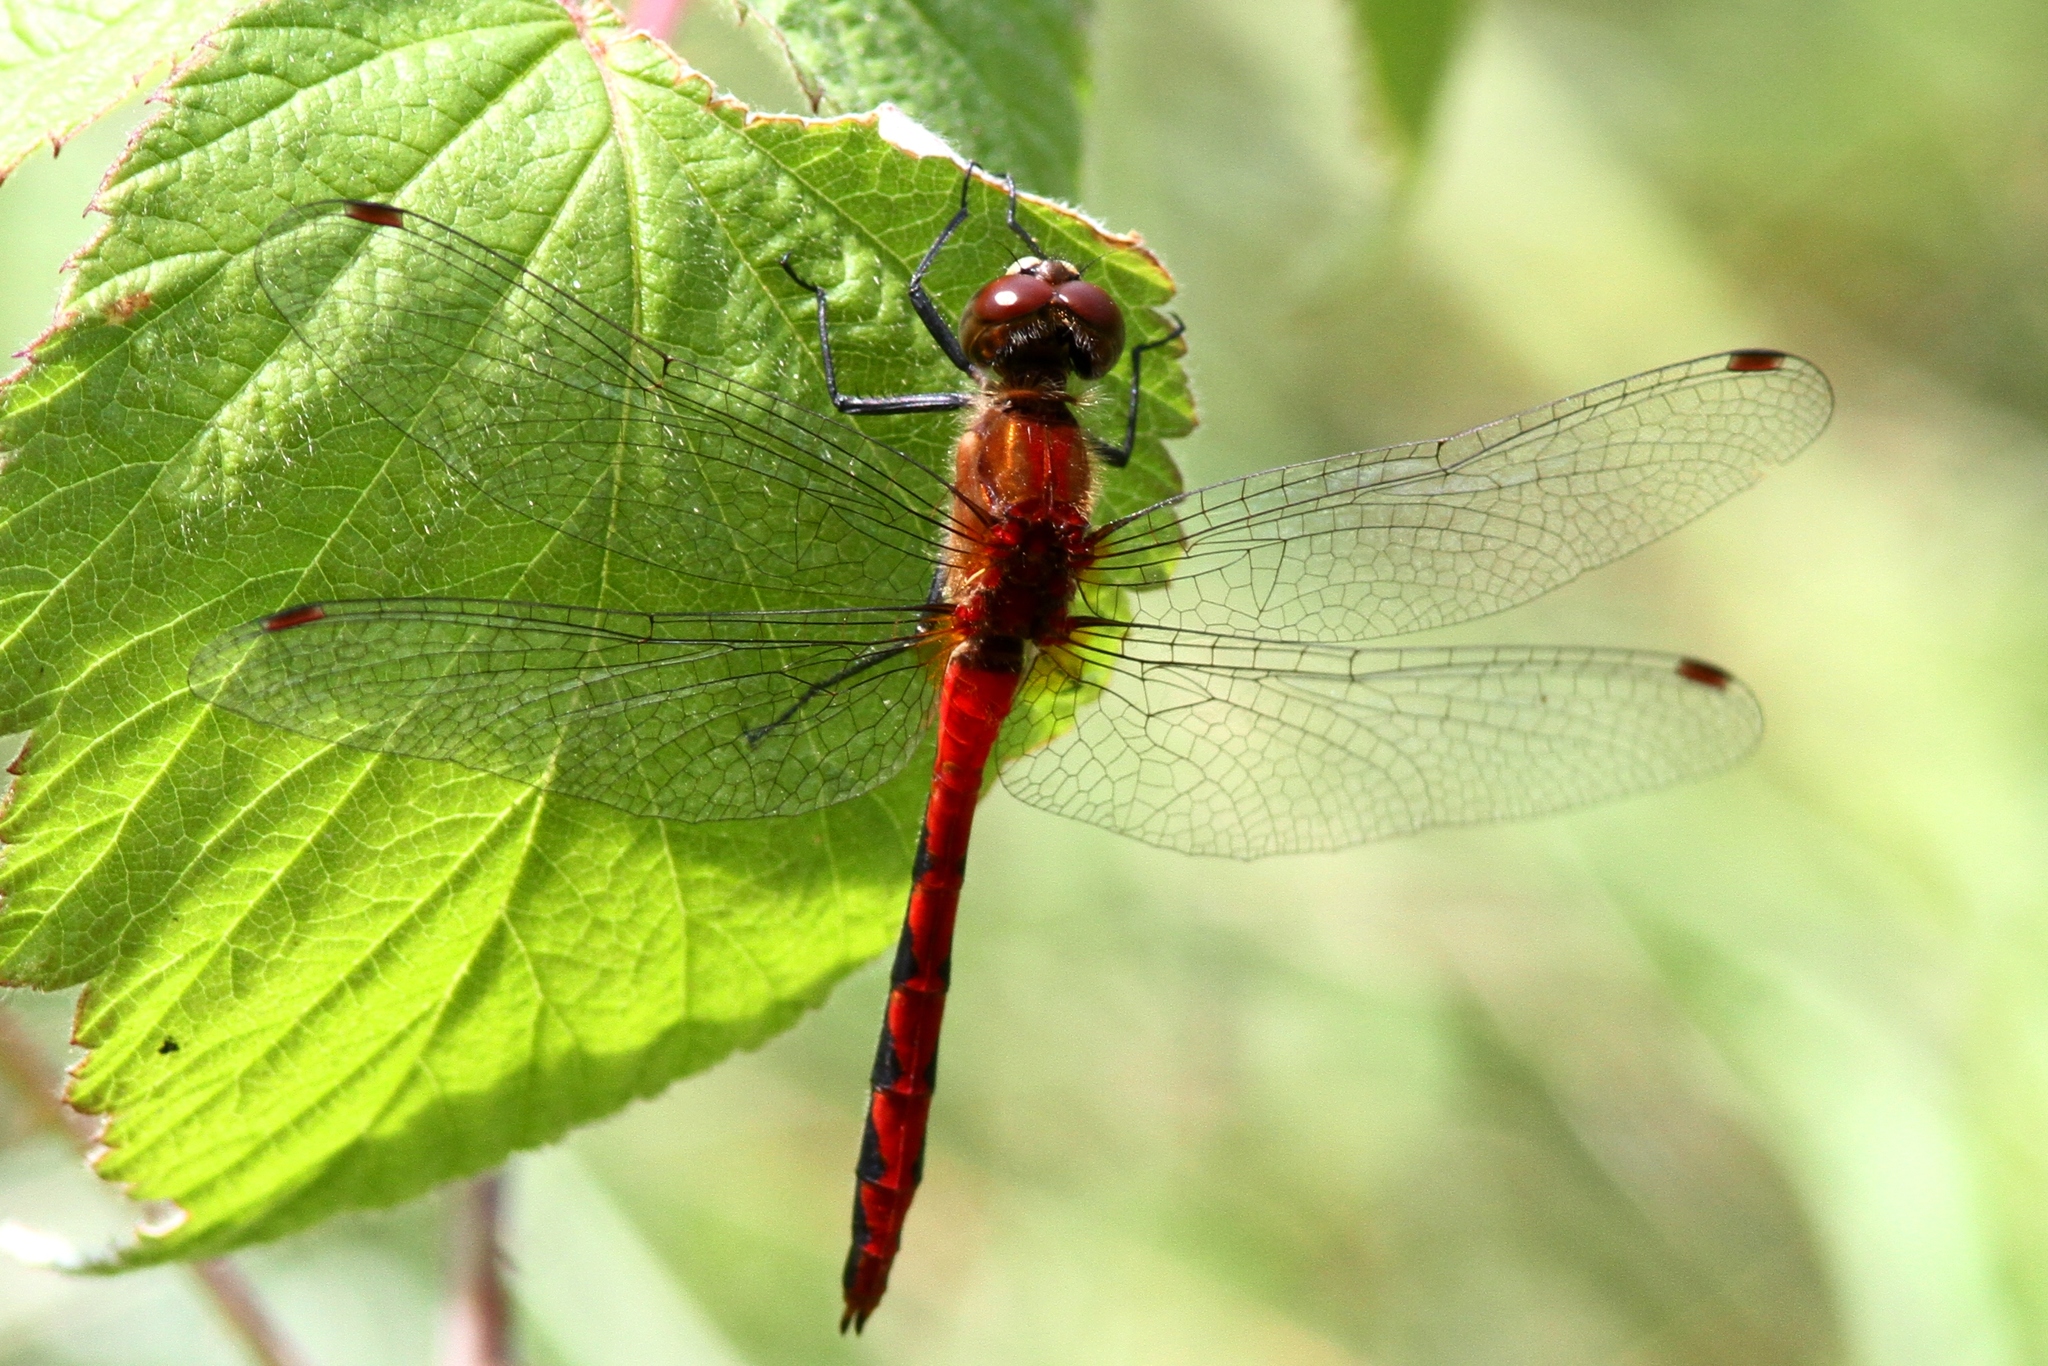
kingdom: Animalia
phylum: Arthropoda
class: Insecta
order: Odonata
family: Libellulidae
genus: Sympetrum
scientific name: Sympetrum obtrusum
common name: White-faced meadowhawk
